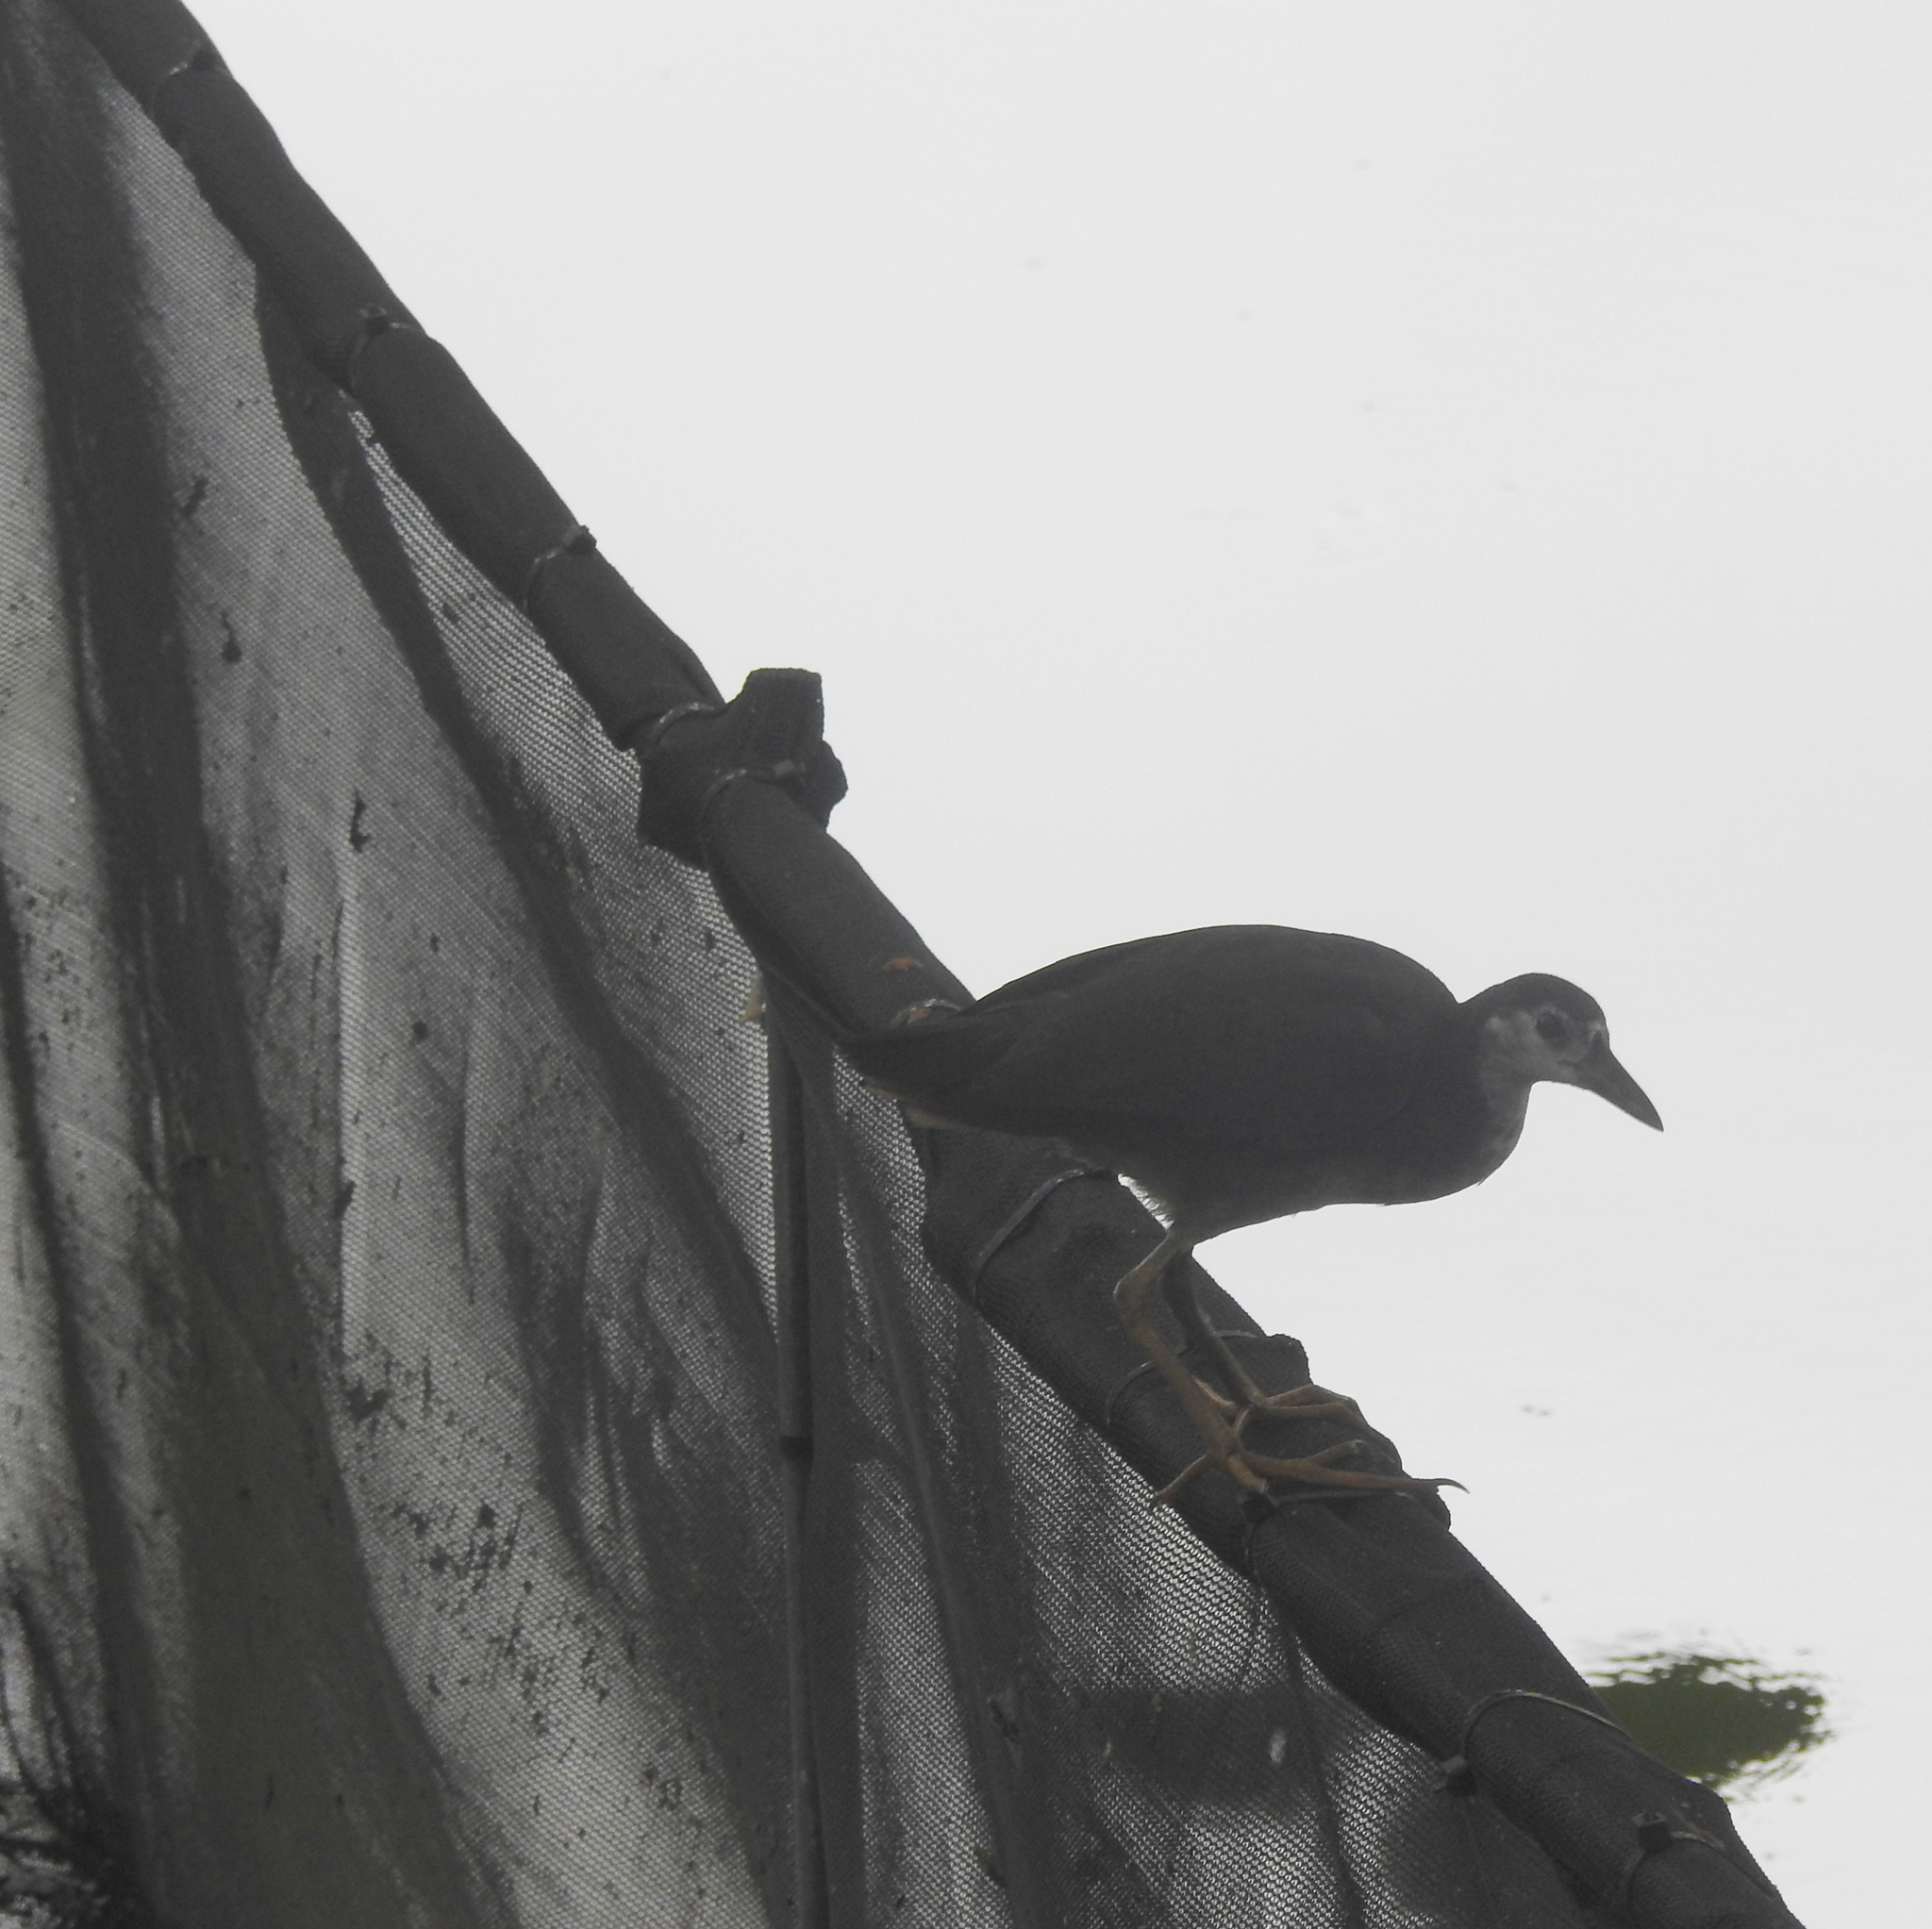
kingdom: Animalia
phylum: Chordata
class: Aves
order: Gruiformes
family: Rallidae
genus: Amaurornis
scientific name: Amaurornis phoenicurus
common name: White-breasted waterhen
